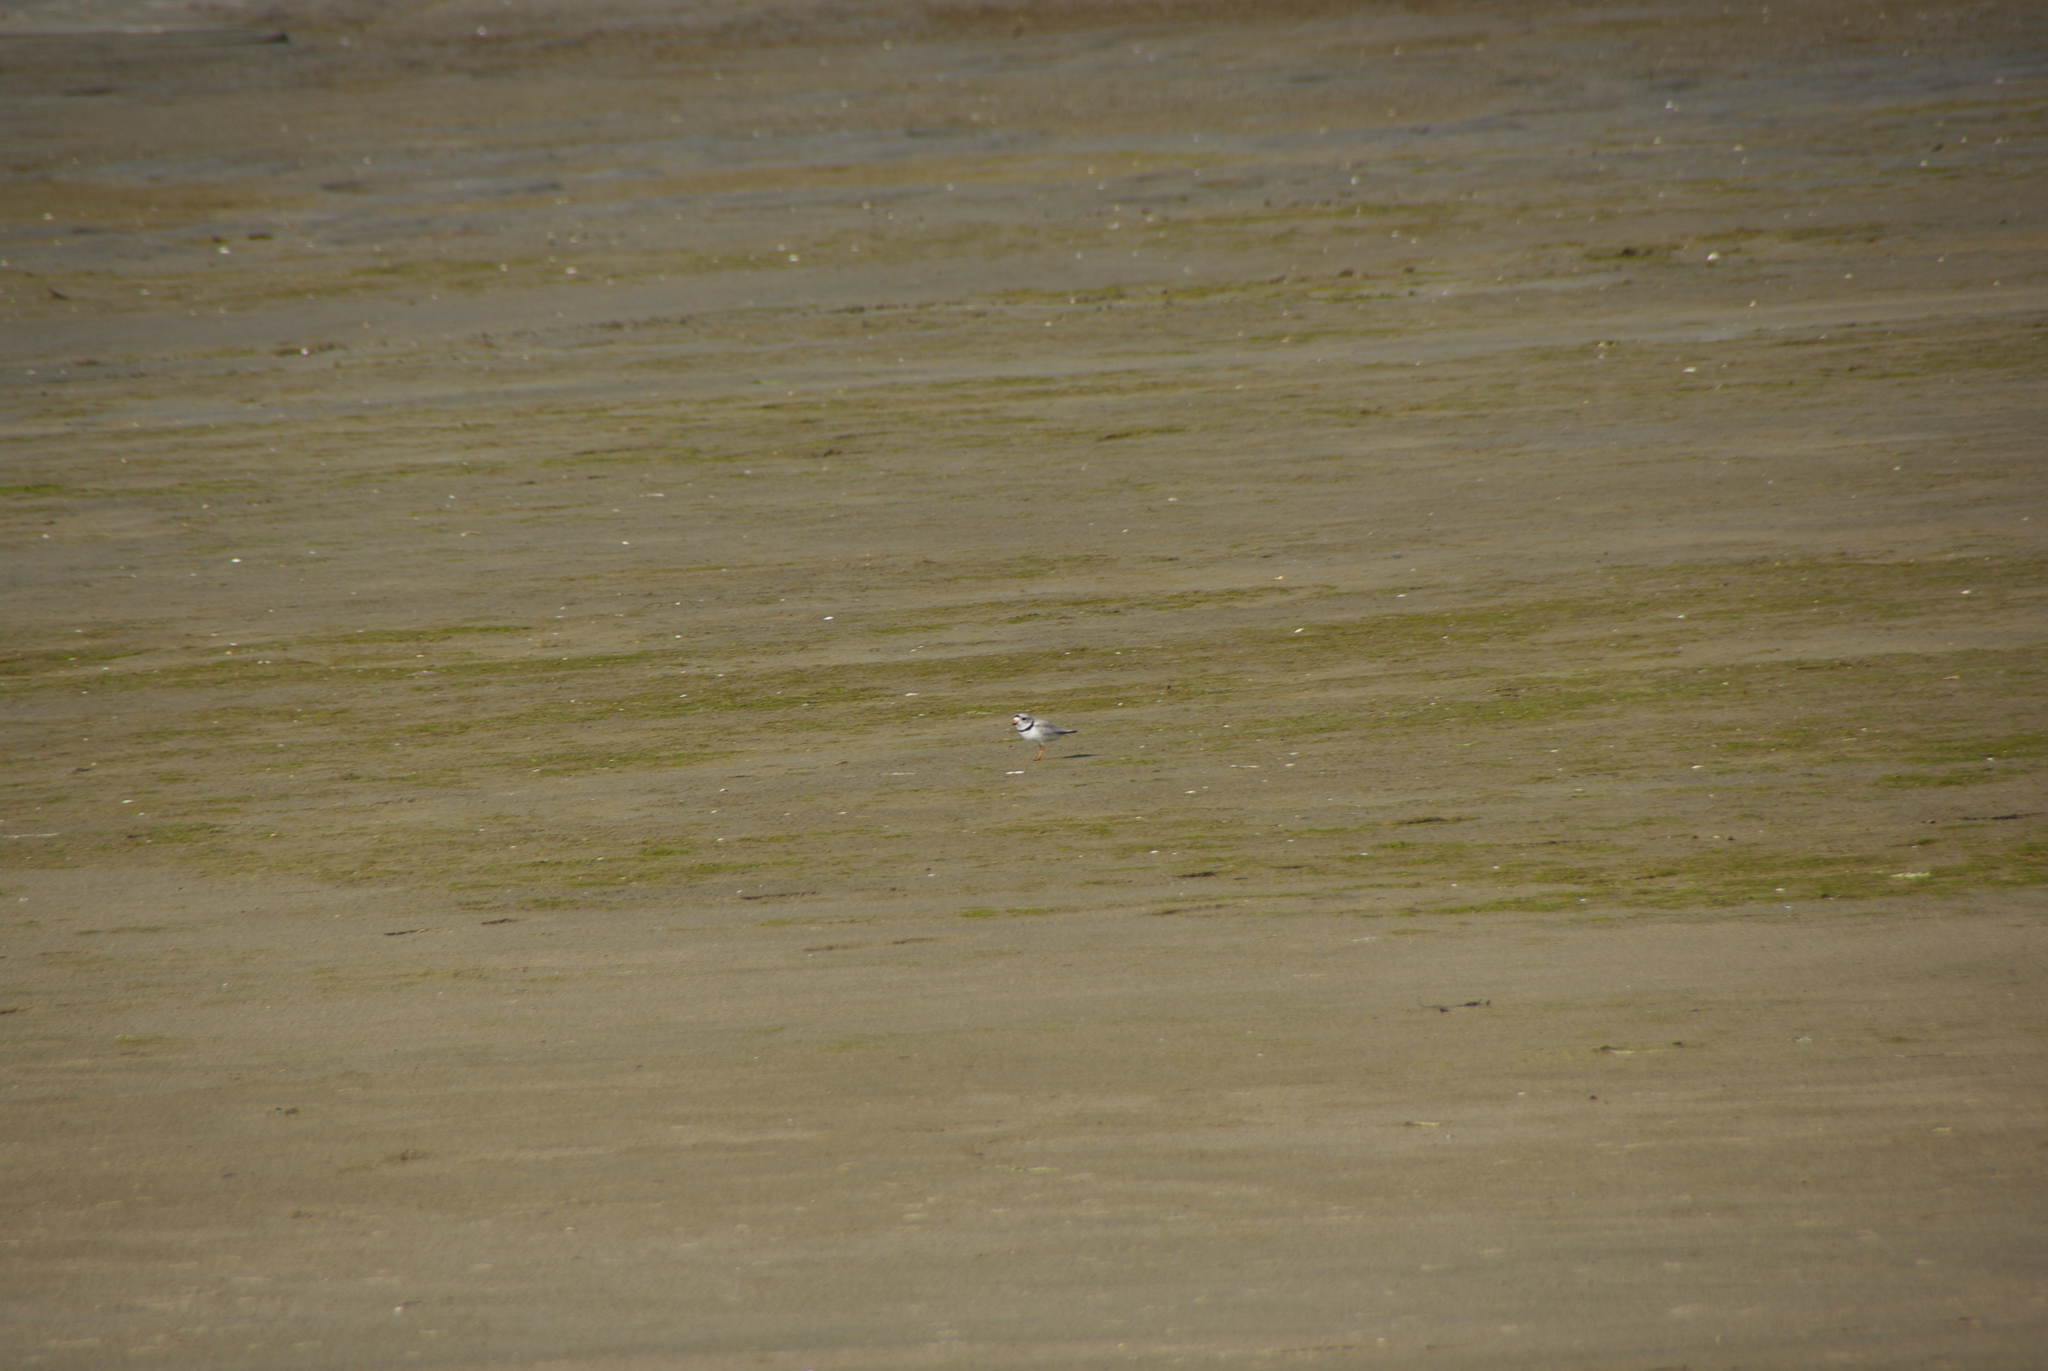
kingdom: Animalia
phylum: Chordata
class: Aves
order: Charadriiformes
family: Charadriidae
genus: Charadrius
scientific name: Charadrius melodus
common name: Piping plover
